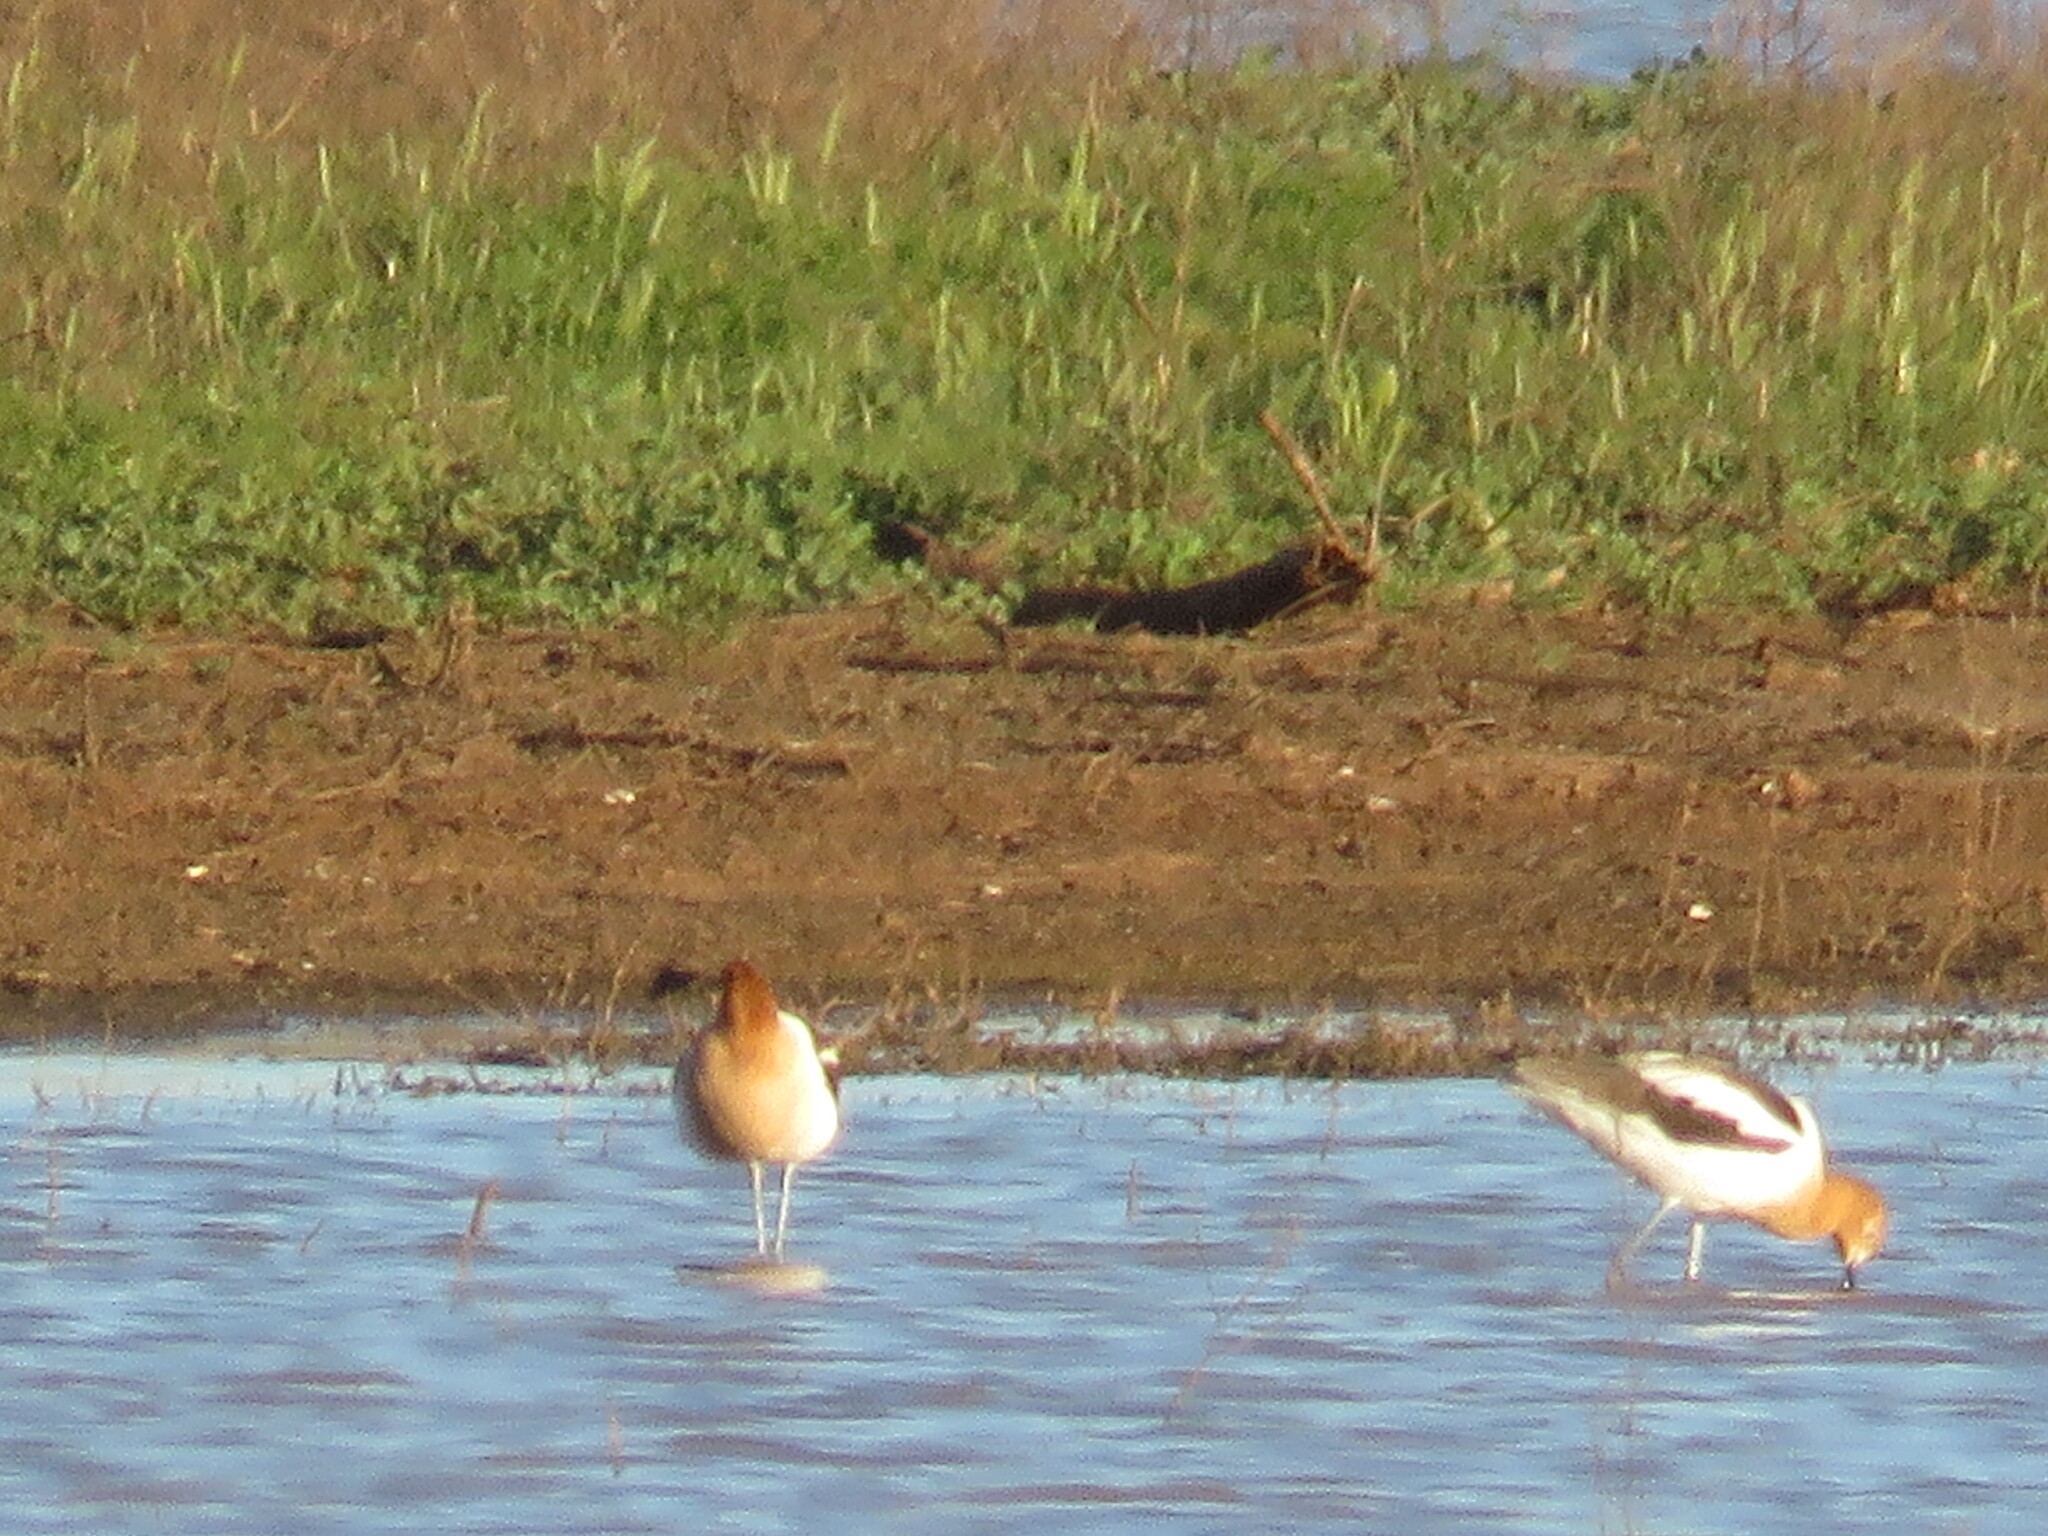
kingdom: Animalia
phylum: Chordata
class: Aves
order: Charadriiformes
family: Recurvirostridae
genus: Recurvirostra
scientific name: Recurvirostra americana
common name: American avocet
